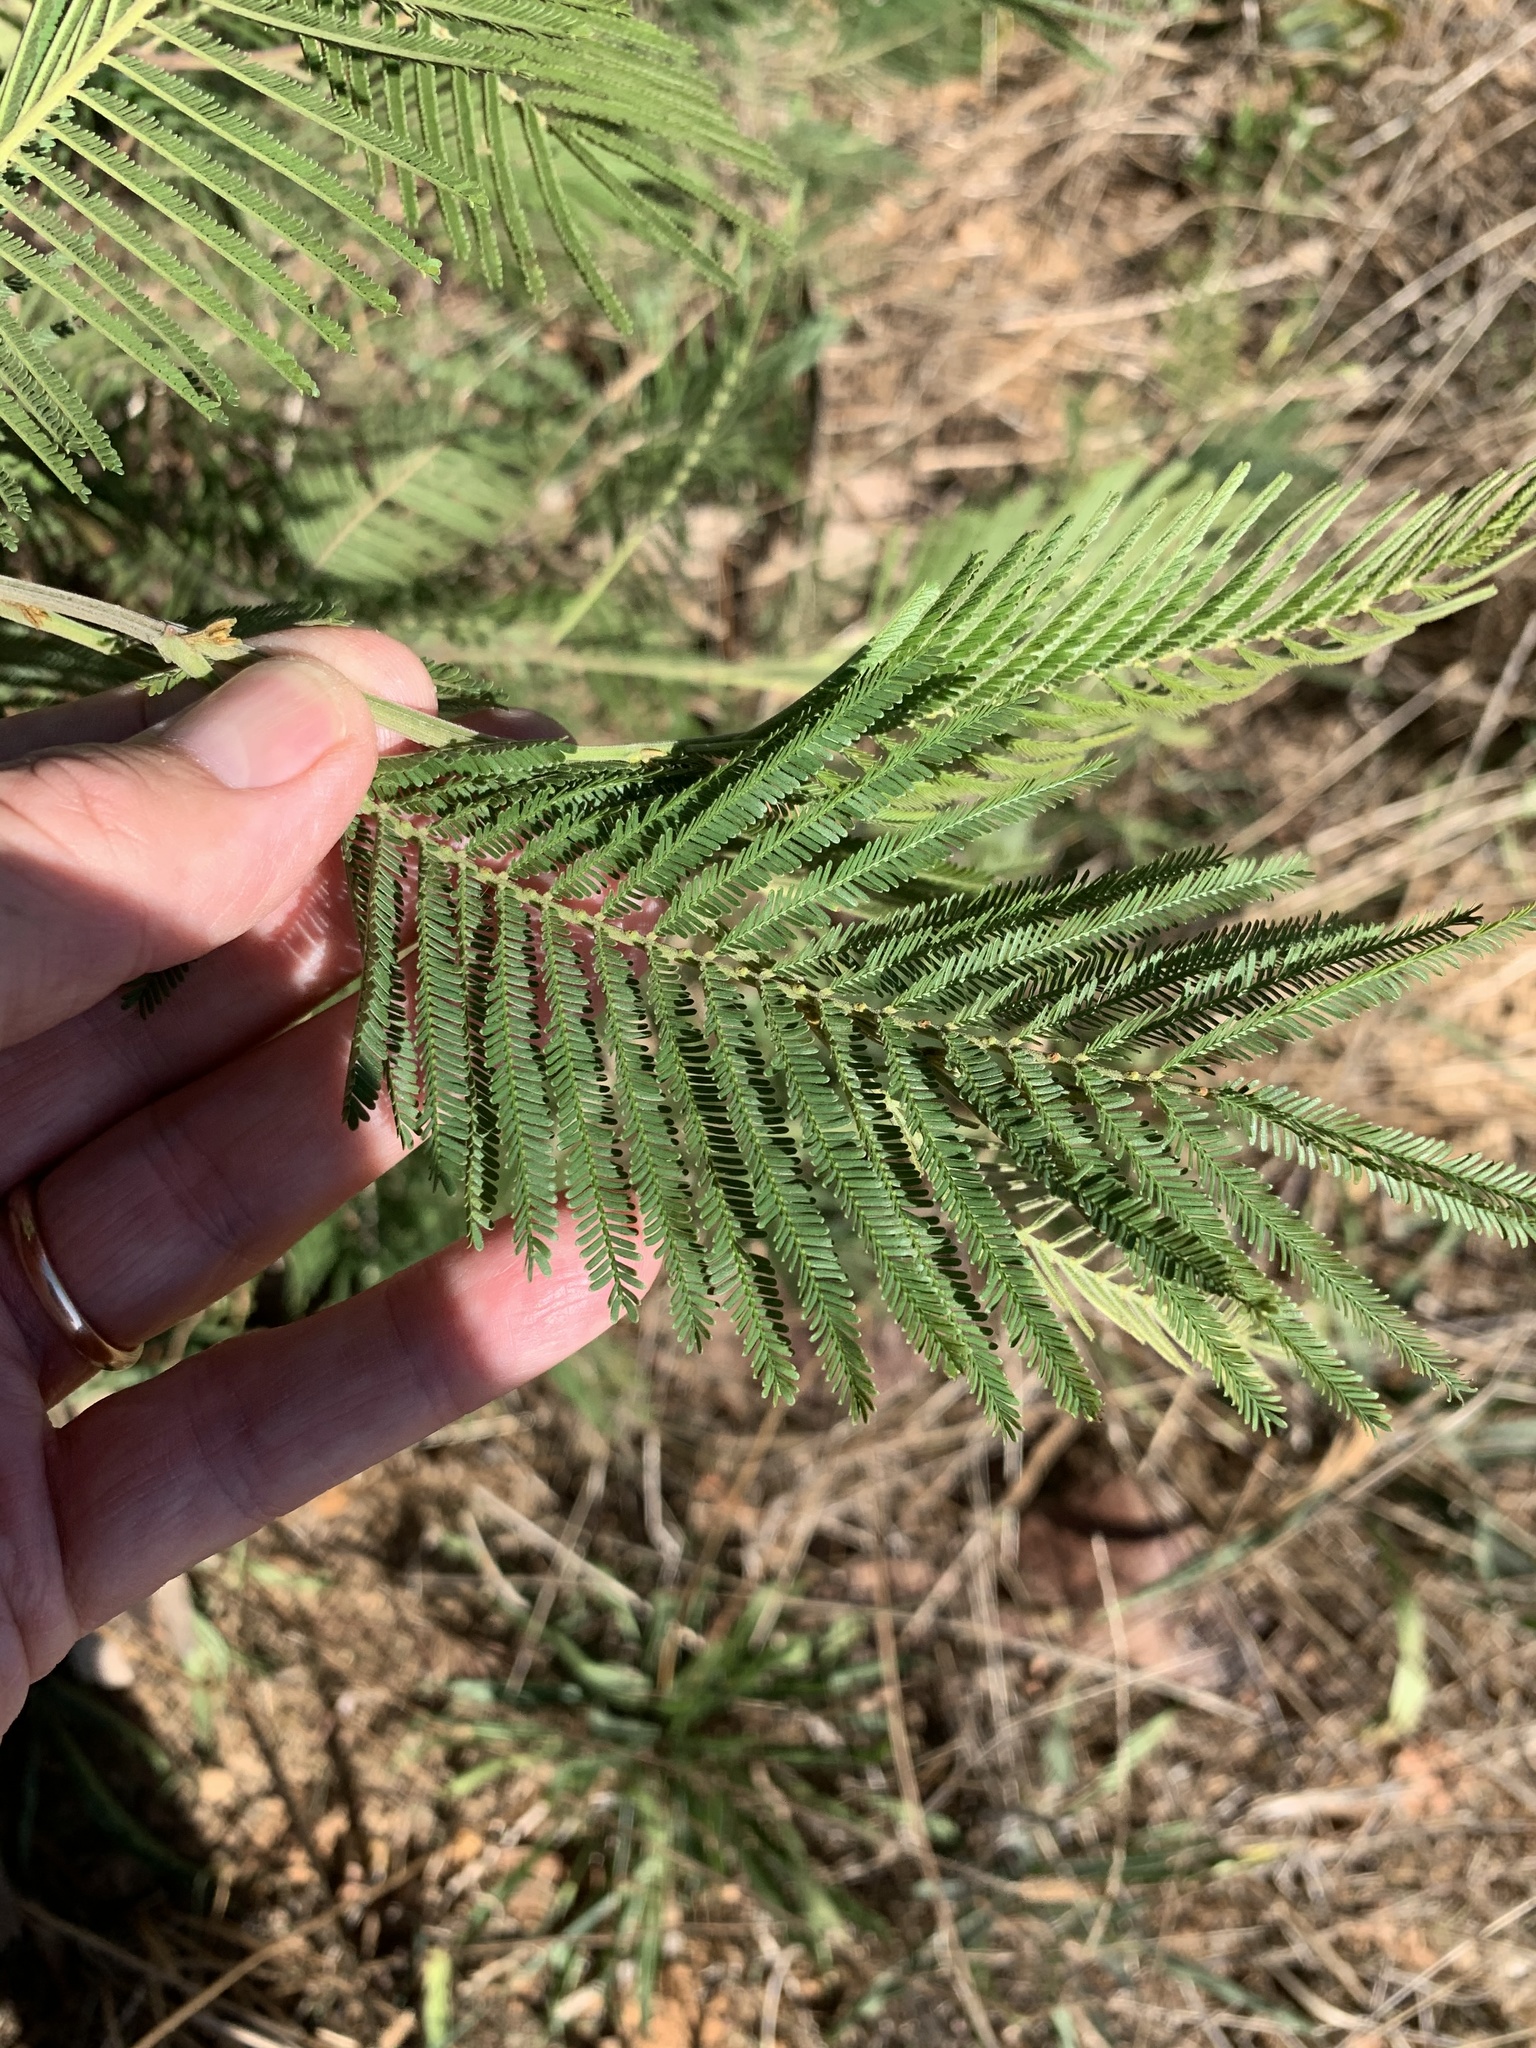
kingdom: Plantae
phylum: Tracheophyta
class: Magnoliopsida
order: Fabales
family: Fabaceae
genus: Acacia
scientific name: Acacia mearnsii
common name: Black wattle
